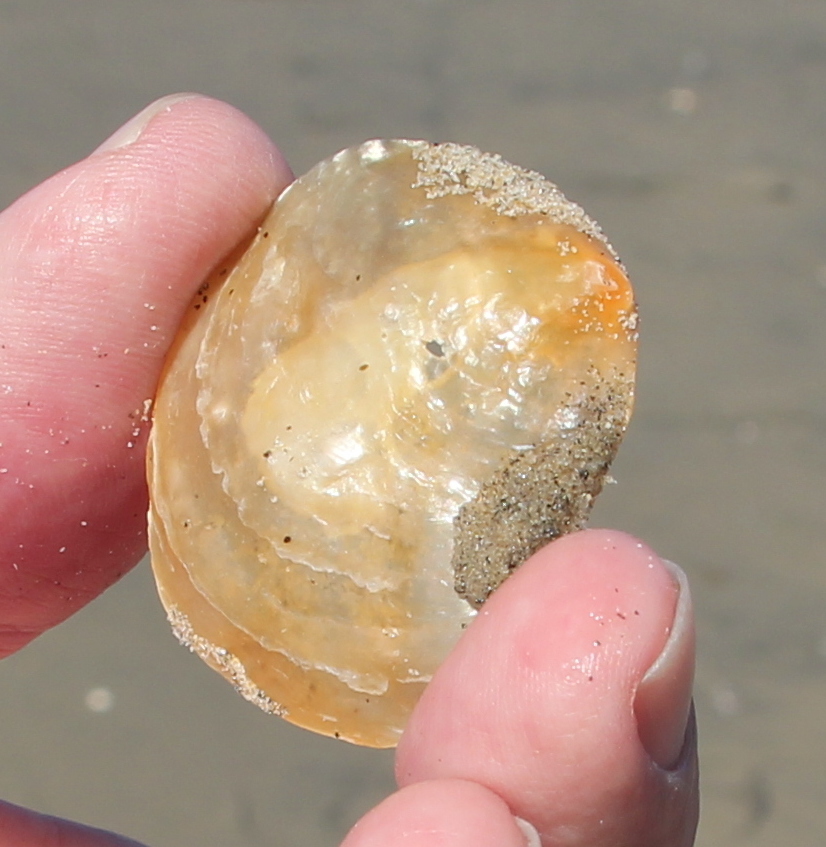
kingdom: Animalia
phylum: Mollusca
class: Bivalvia
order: Pectinida
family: Anomiidae
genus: Anomia
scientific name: Anomia peruviana
